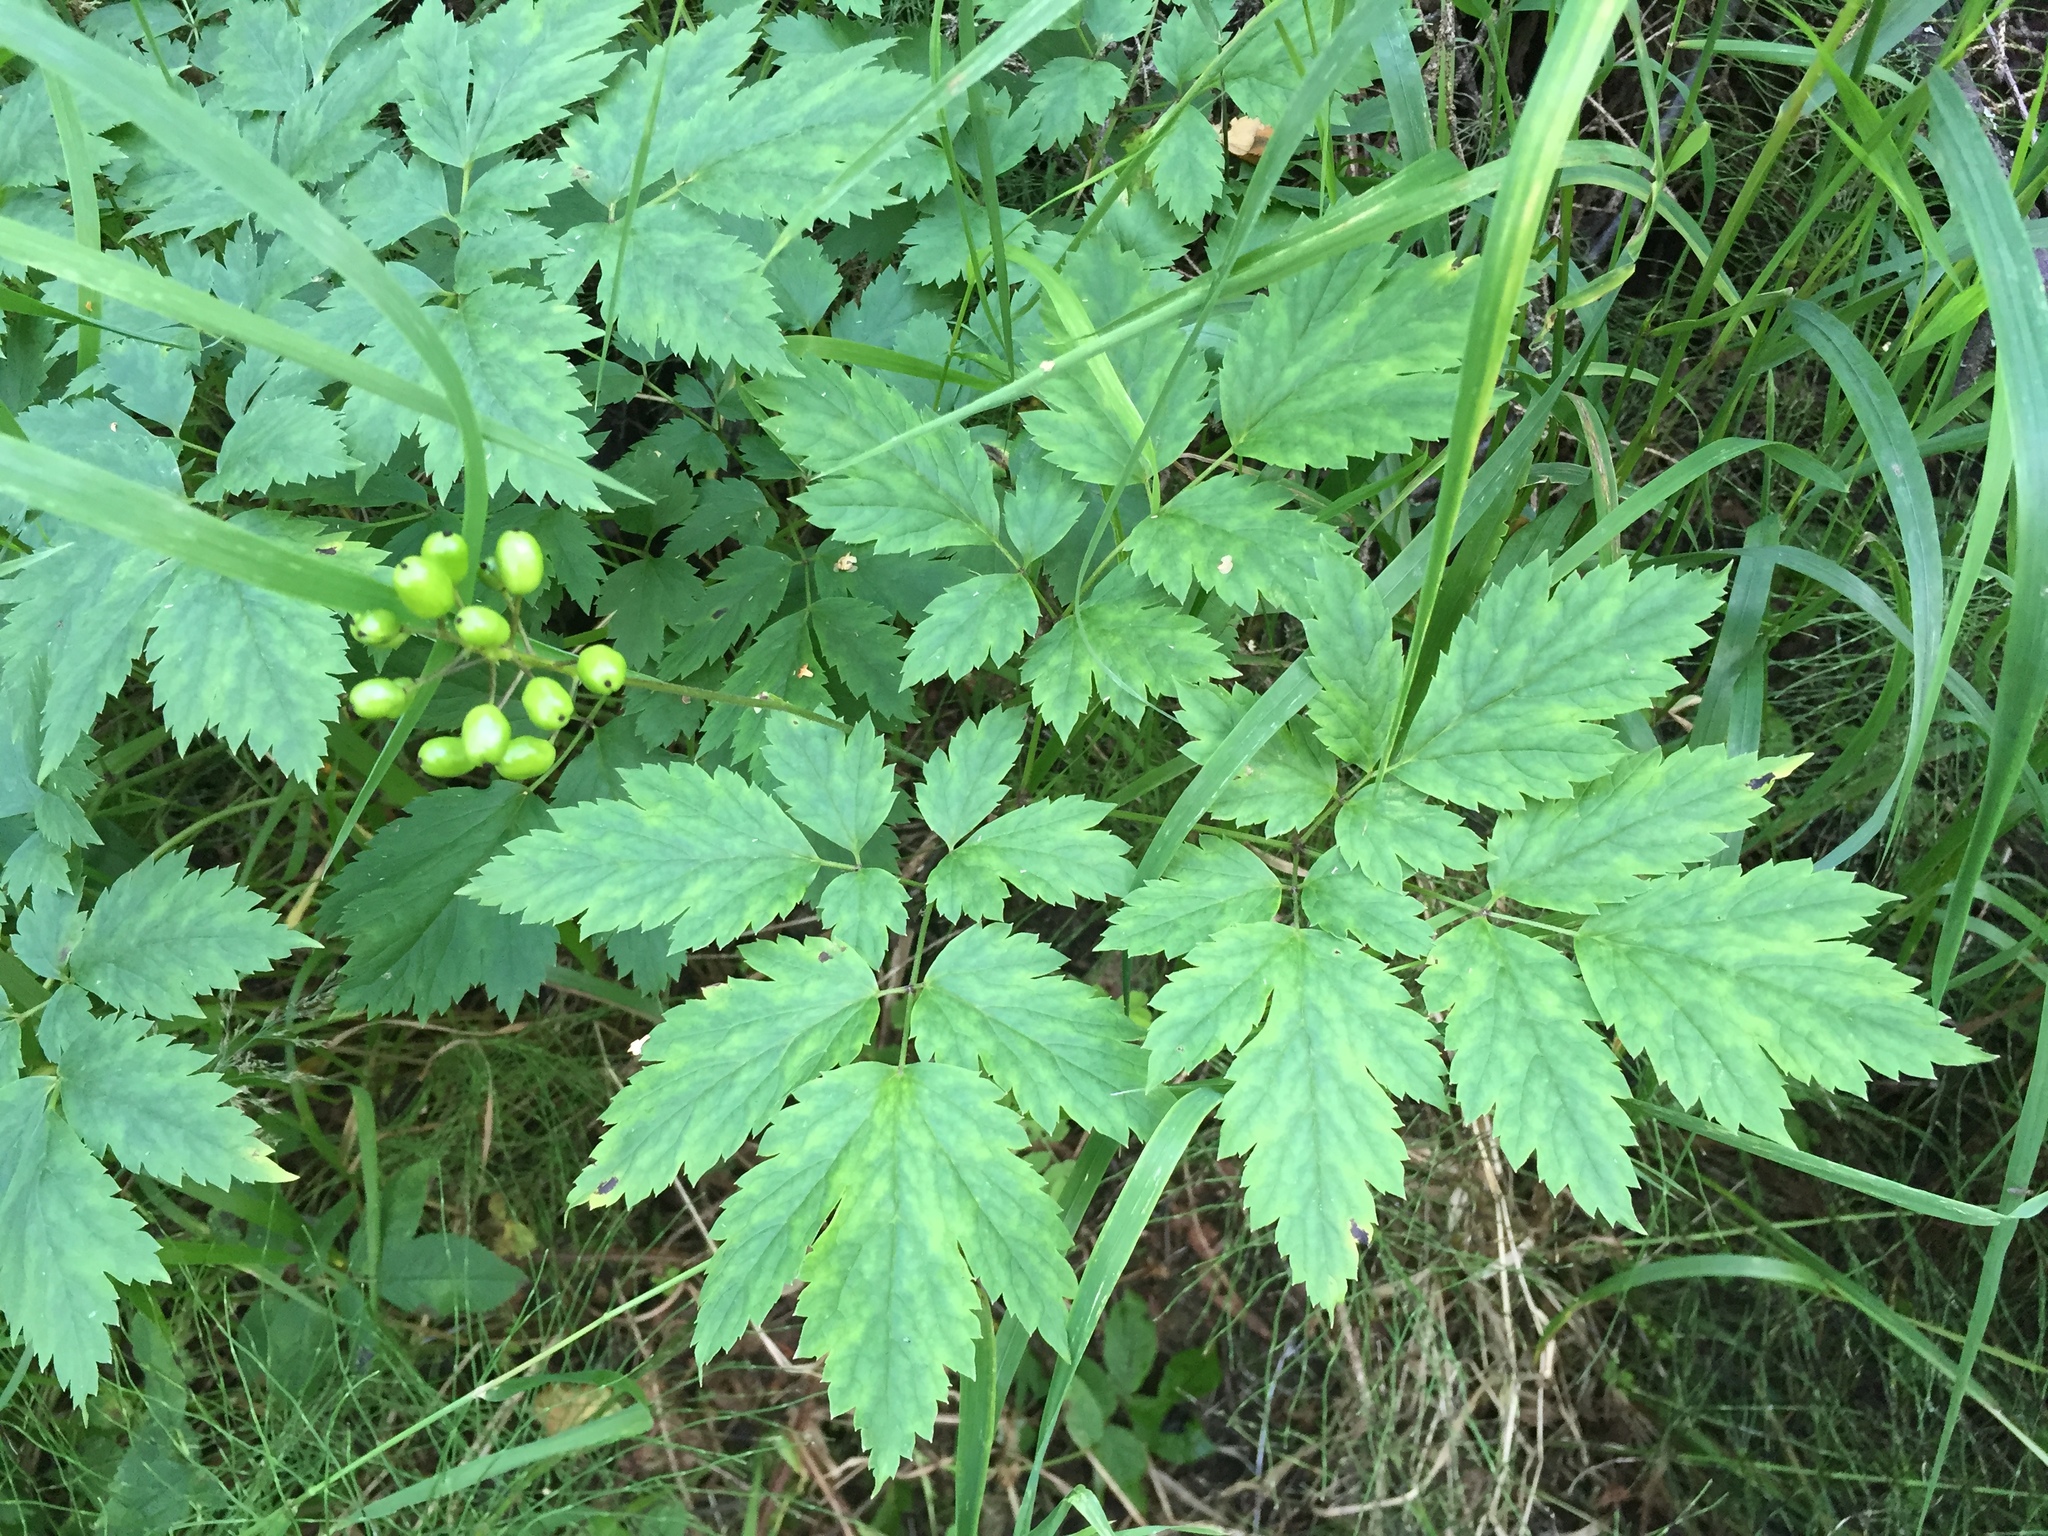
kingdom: Plantae
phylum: Tracheophyta
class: Magnoliopsida
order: Ranunculales
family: Ranunculaceae
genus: Actaea
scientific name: Actaea rubra
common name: Red baneberry
